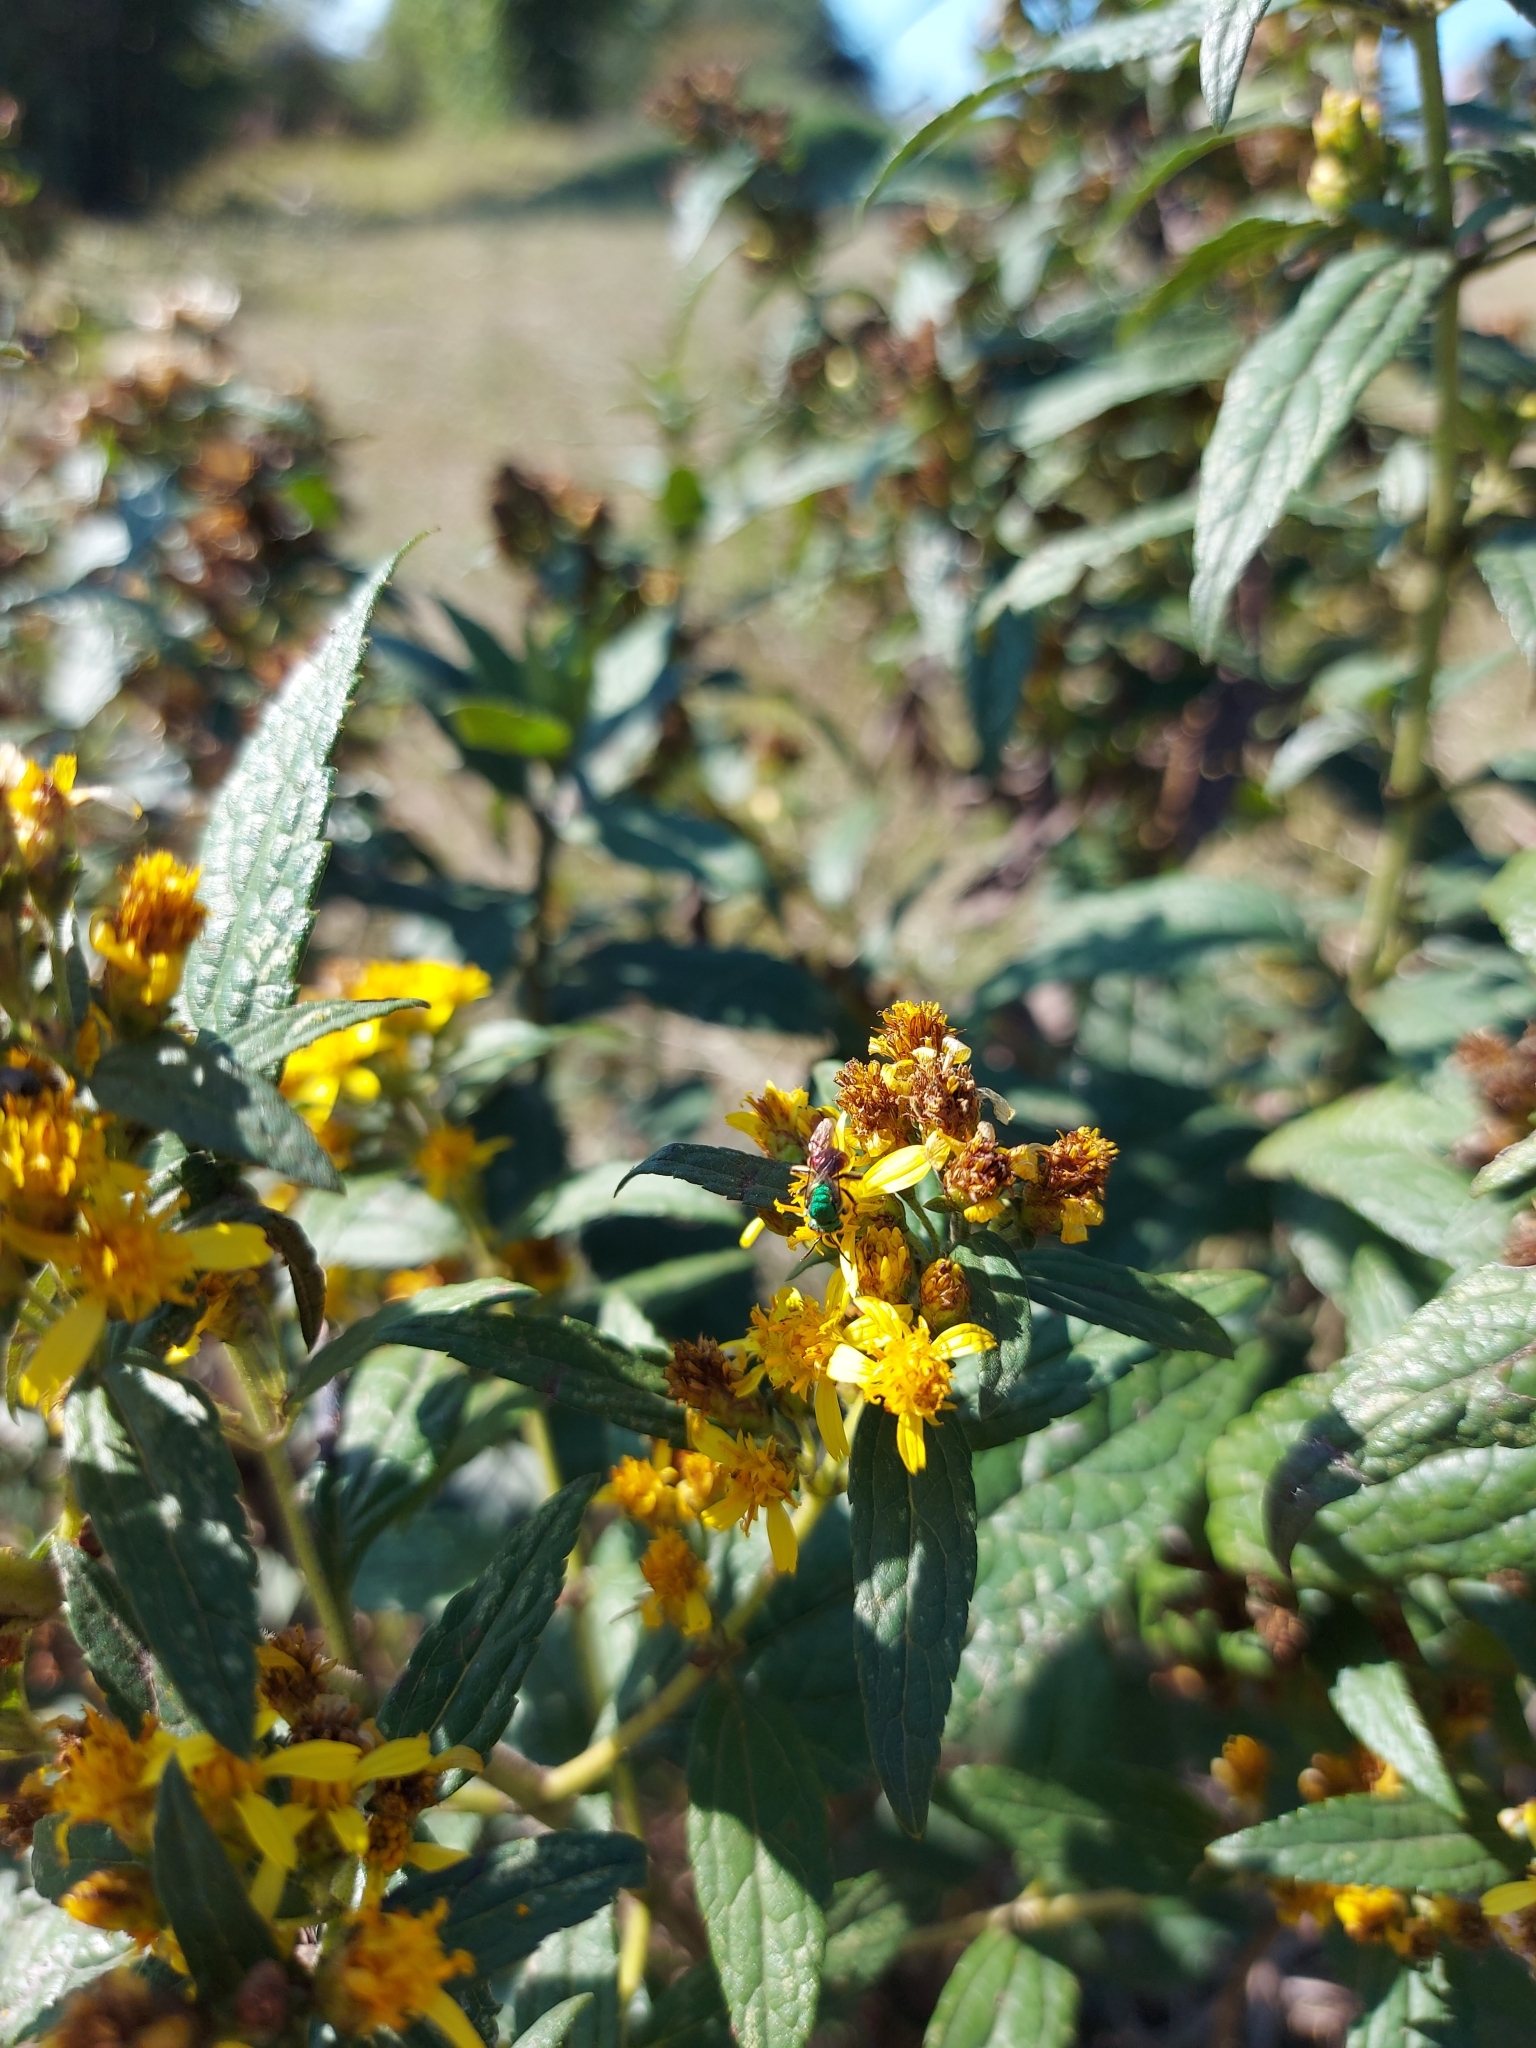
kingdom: Animalia
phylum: Arthropoda
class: Insecta
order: Hymenoptera
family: Halictidae
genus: Augochloropsis
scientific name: Augochloropsis ignita
